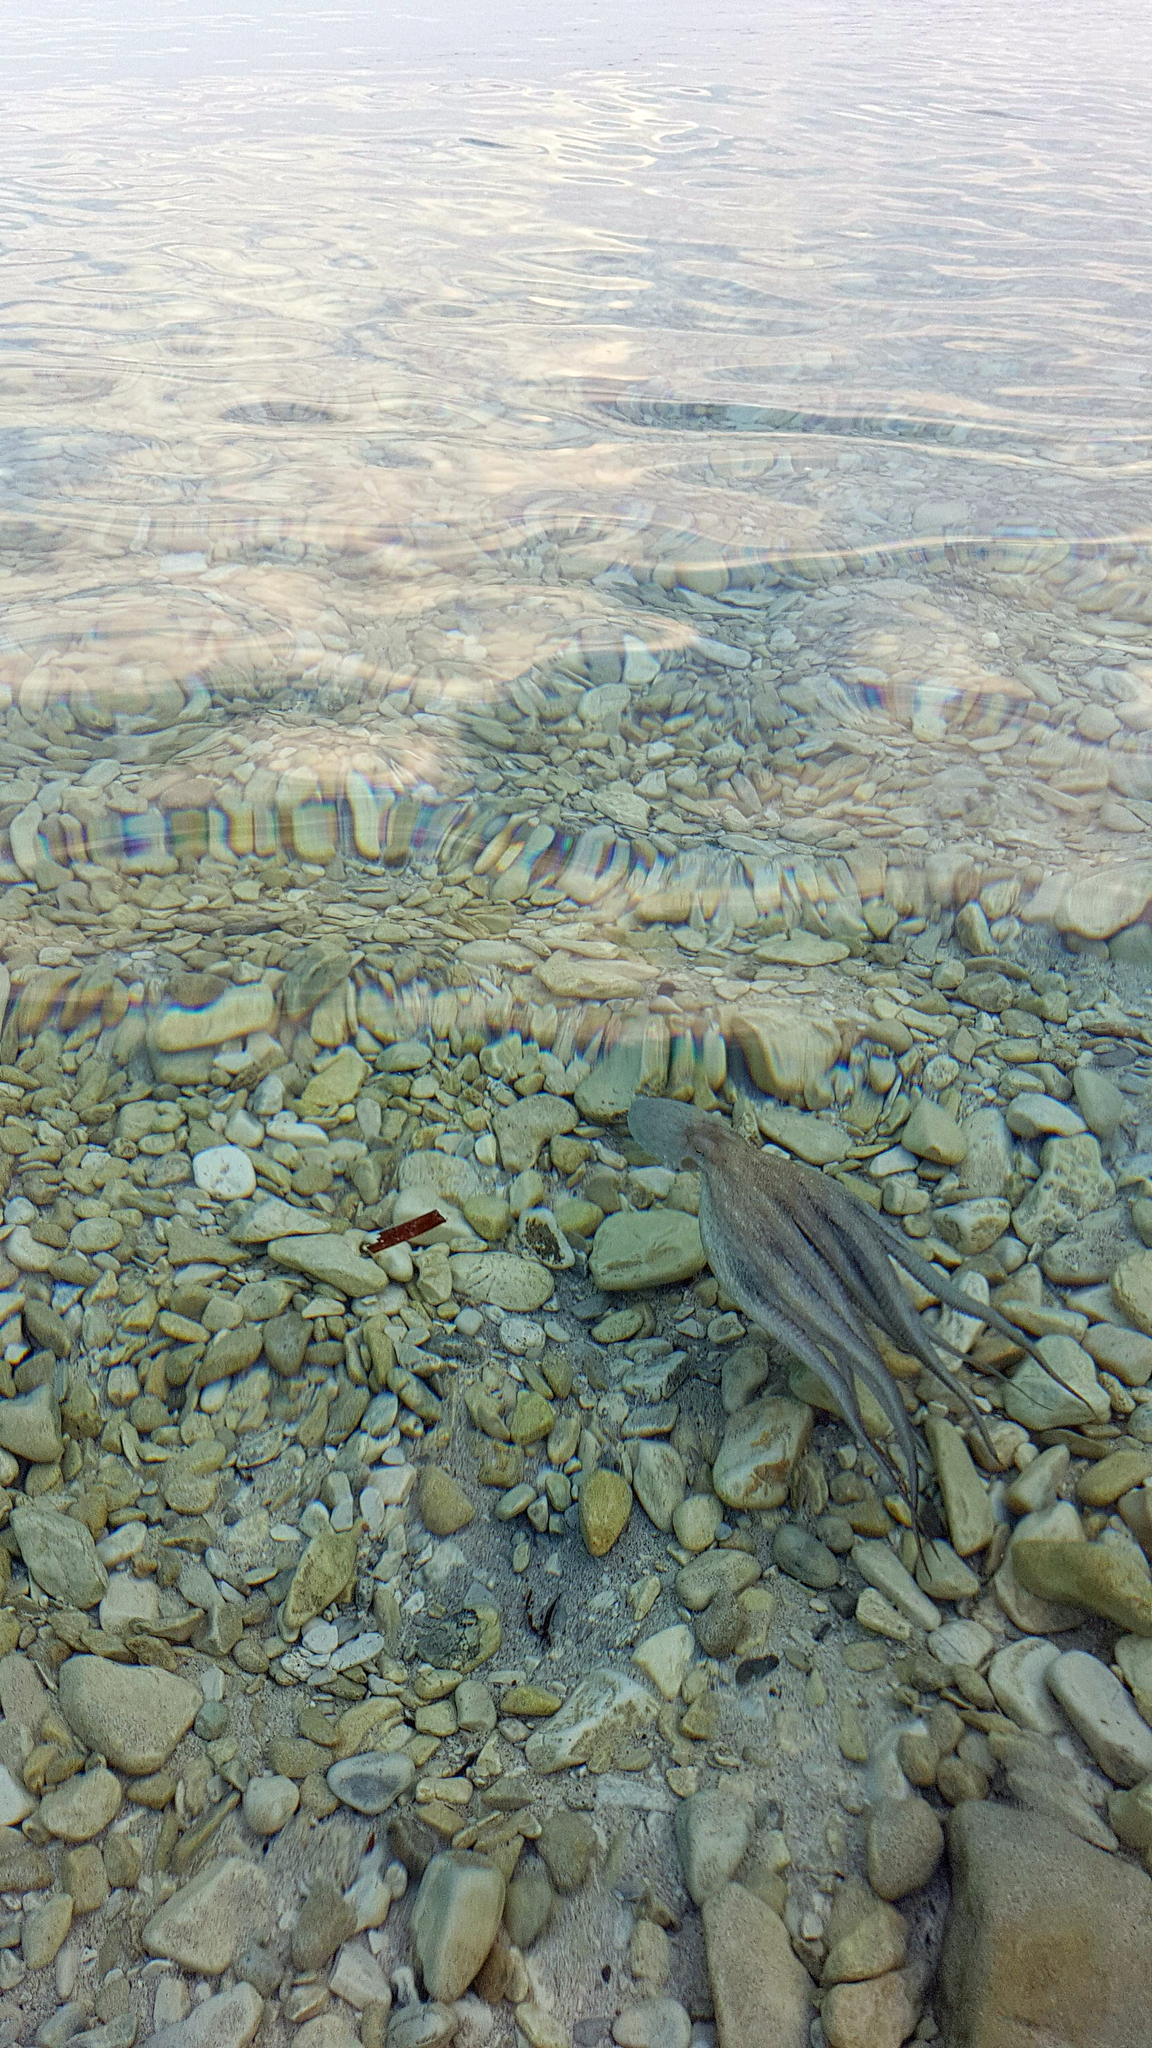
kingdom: Animalia
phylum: Mollusca
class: Cephalopoda
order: Octopoda
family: Octopodidae
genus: Octopus
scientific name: Octopus vulgaris
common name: Common octopus
